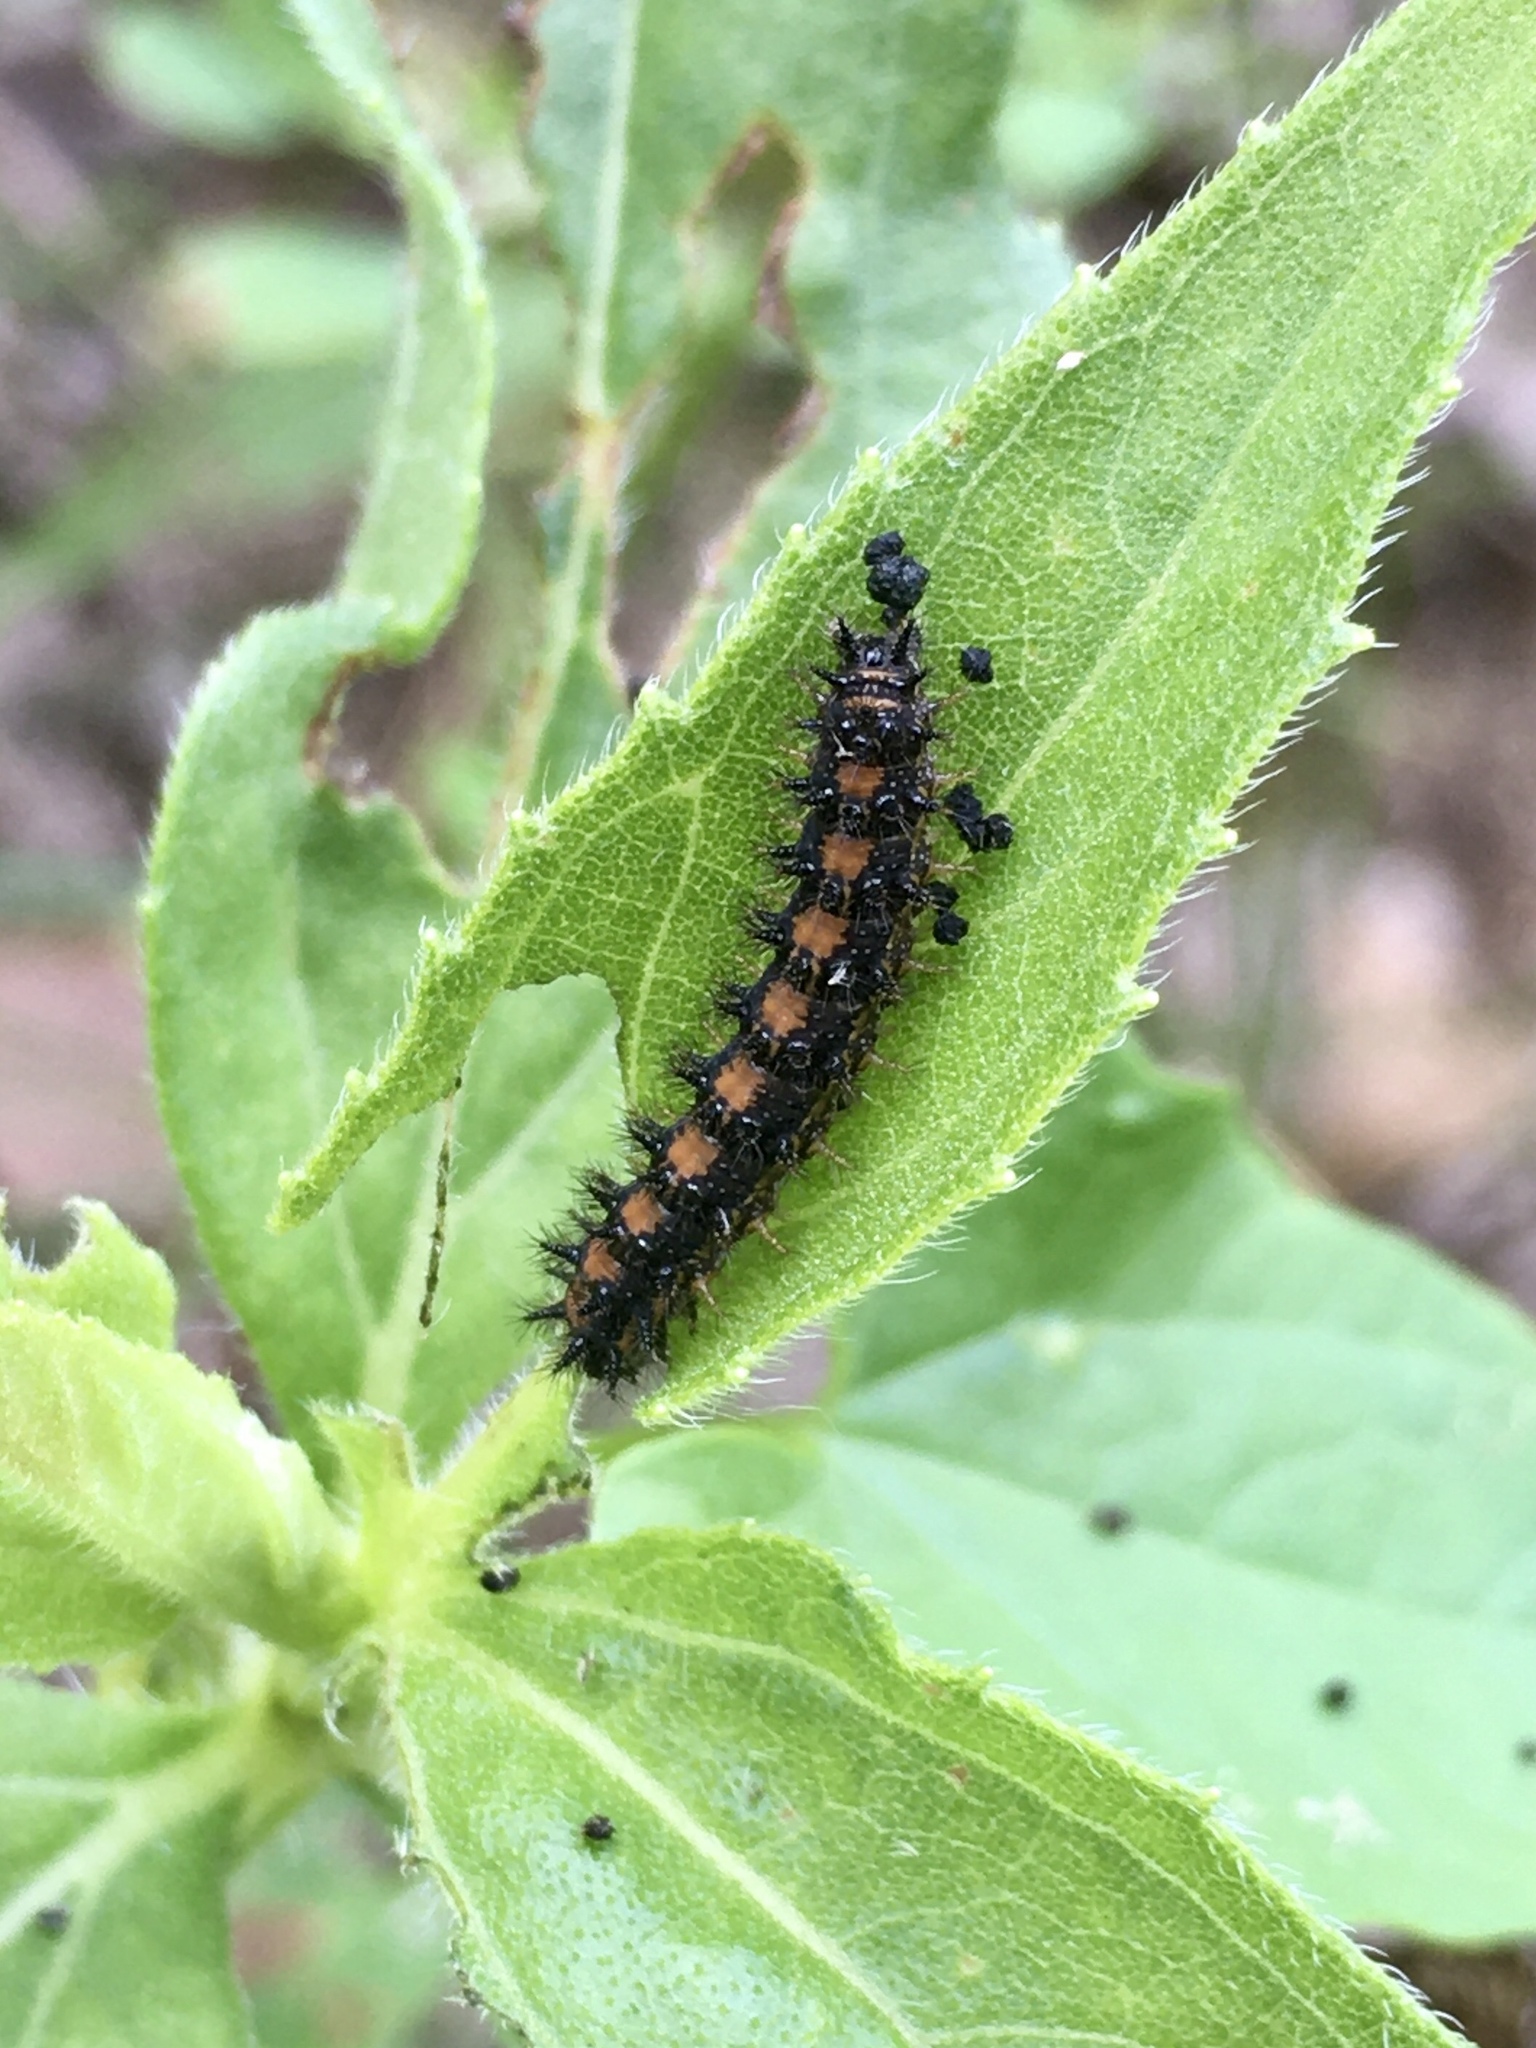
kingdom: Animalia
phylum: Arthropoda
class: Insecta
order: Lepidoptera
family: Nymphalidae
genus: Chlosyne
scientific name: Chlosyne gorgone
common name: Gorgone checkerspot
